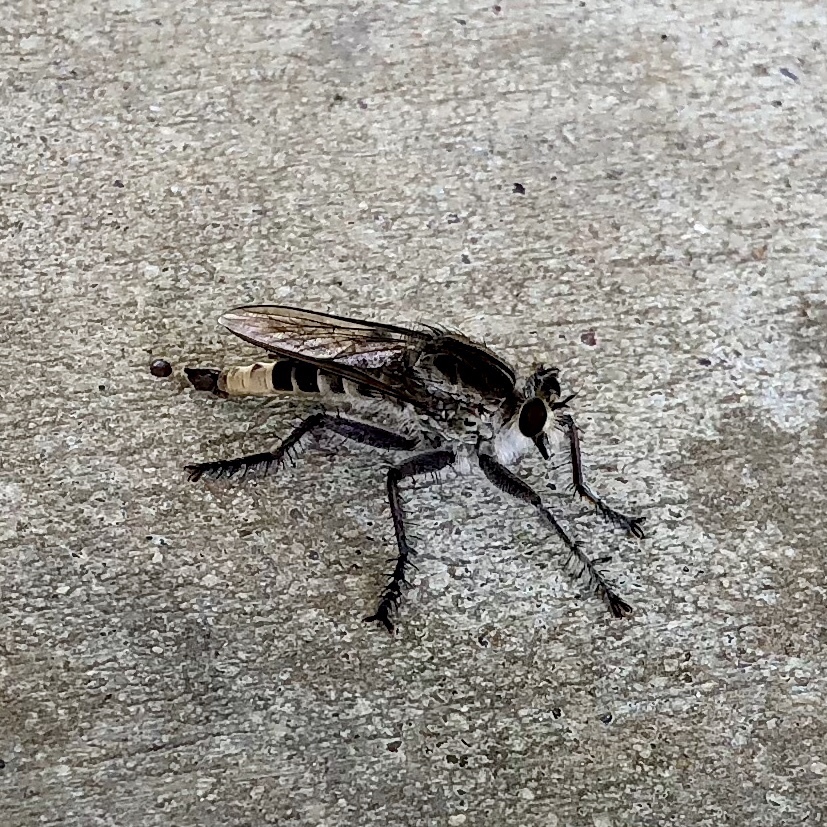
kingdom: Animalia
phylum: Arthropoda
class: Insecta
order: Diptera
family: Asilidae
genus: Triorla
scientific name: Triorla interrupta
